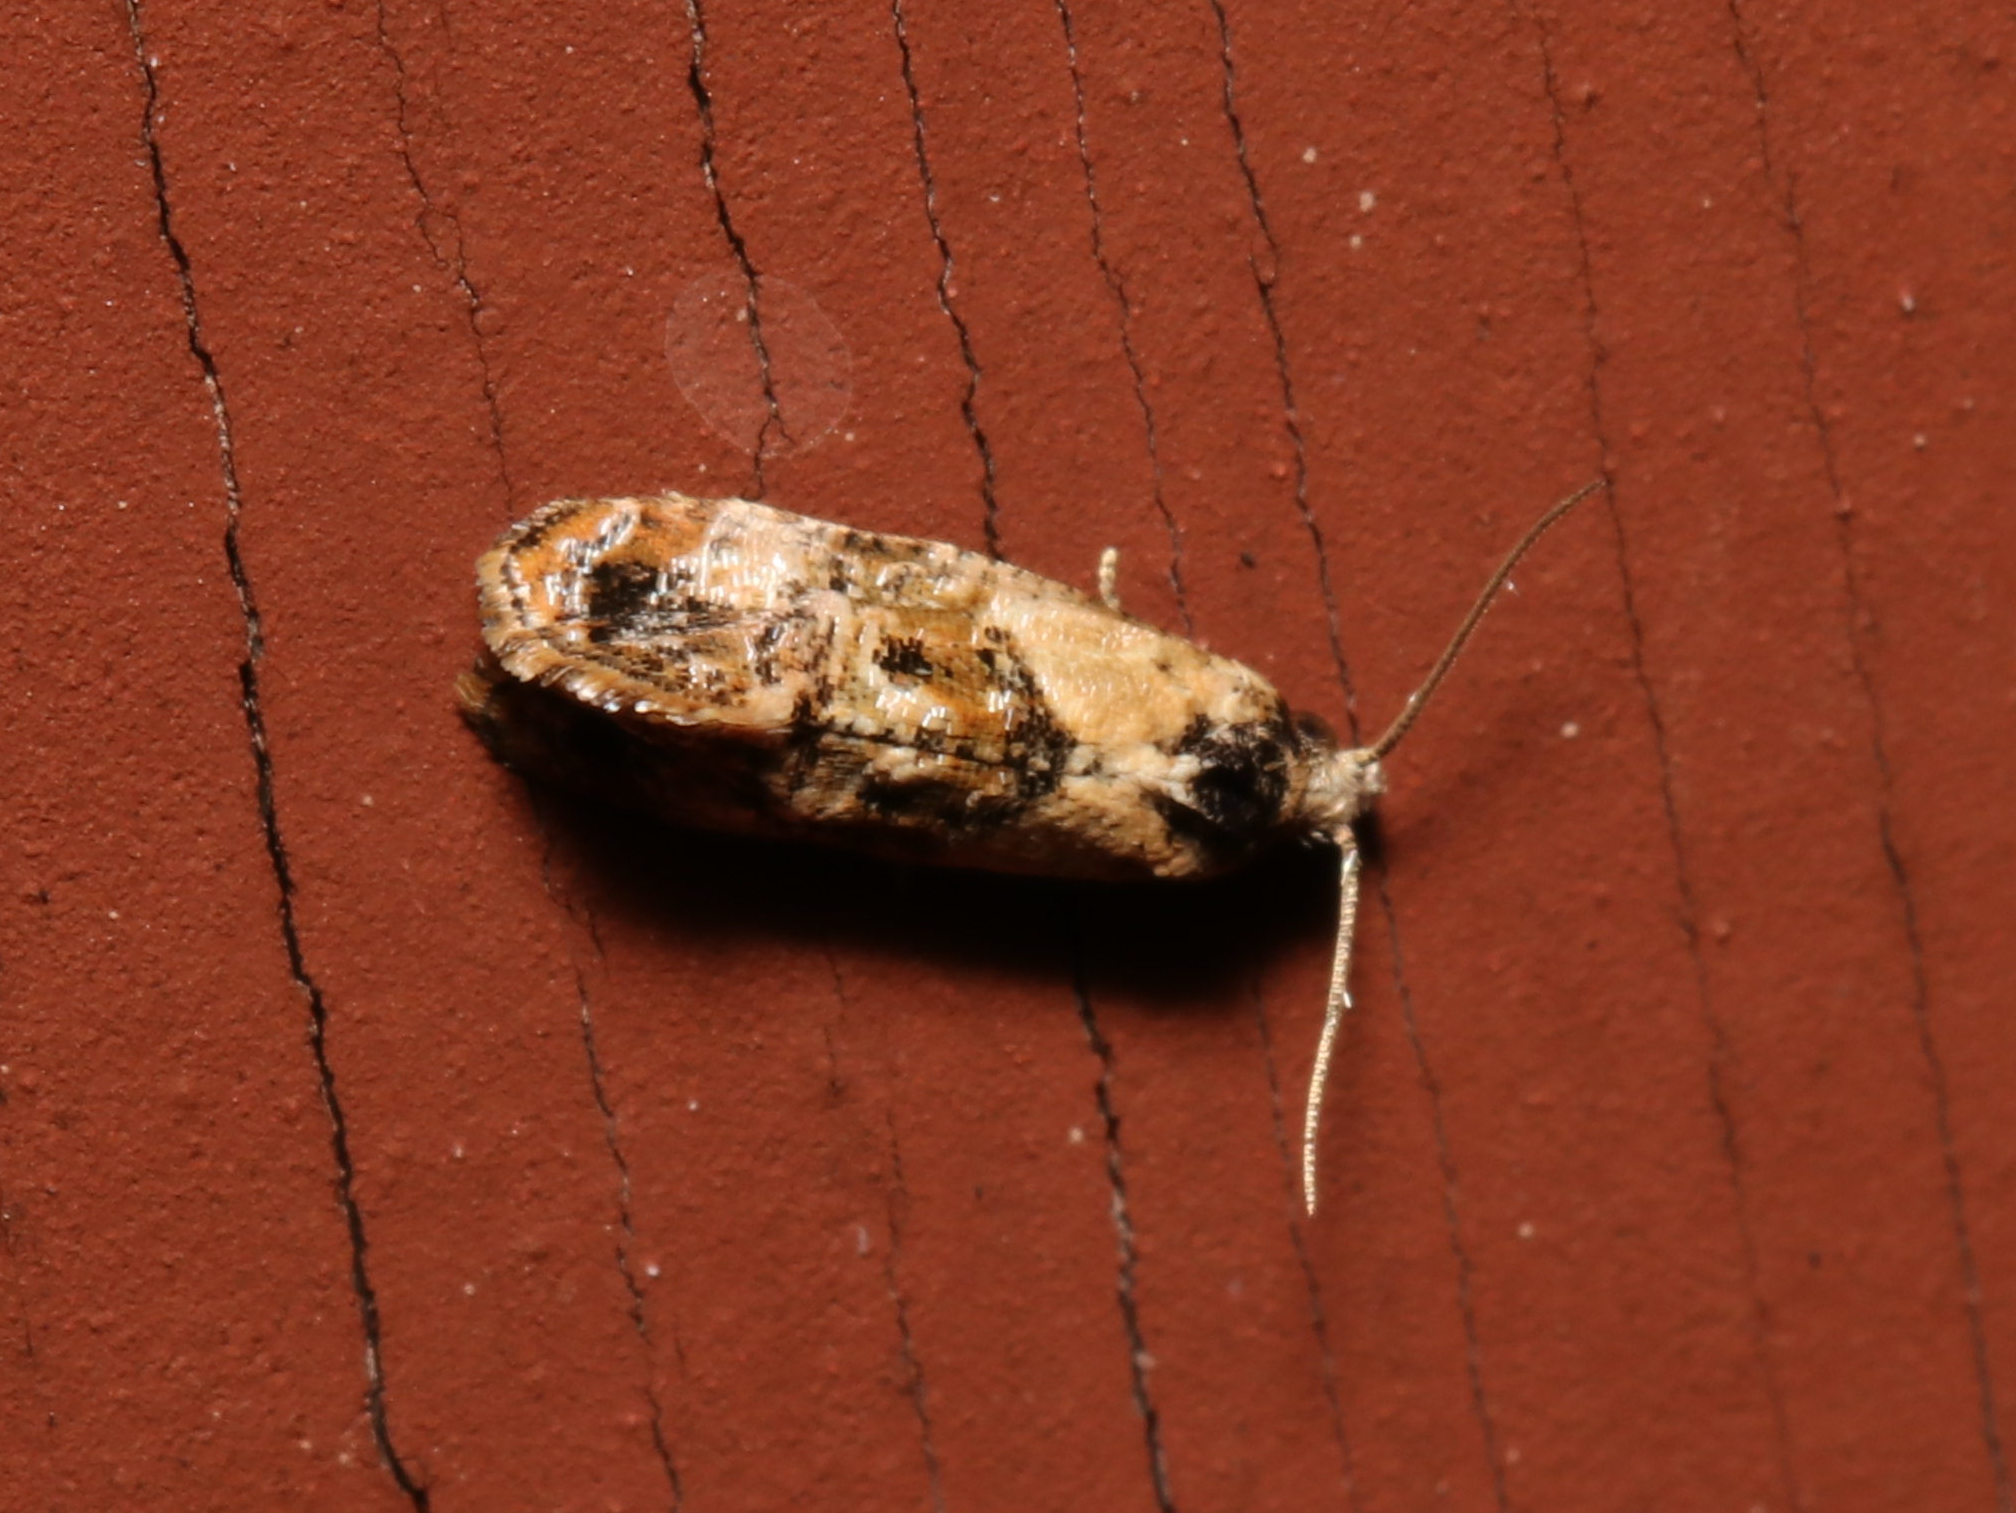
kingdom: Animalia
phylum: Arthropoda
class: Insecta
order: Lepidoptera
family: Tortricidae
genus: Cochylis
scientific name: Cochylis Cochylichroa hoffmanana
